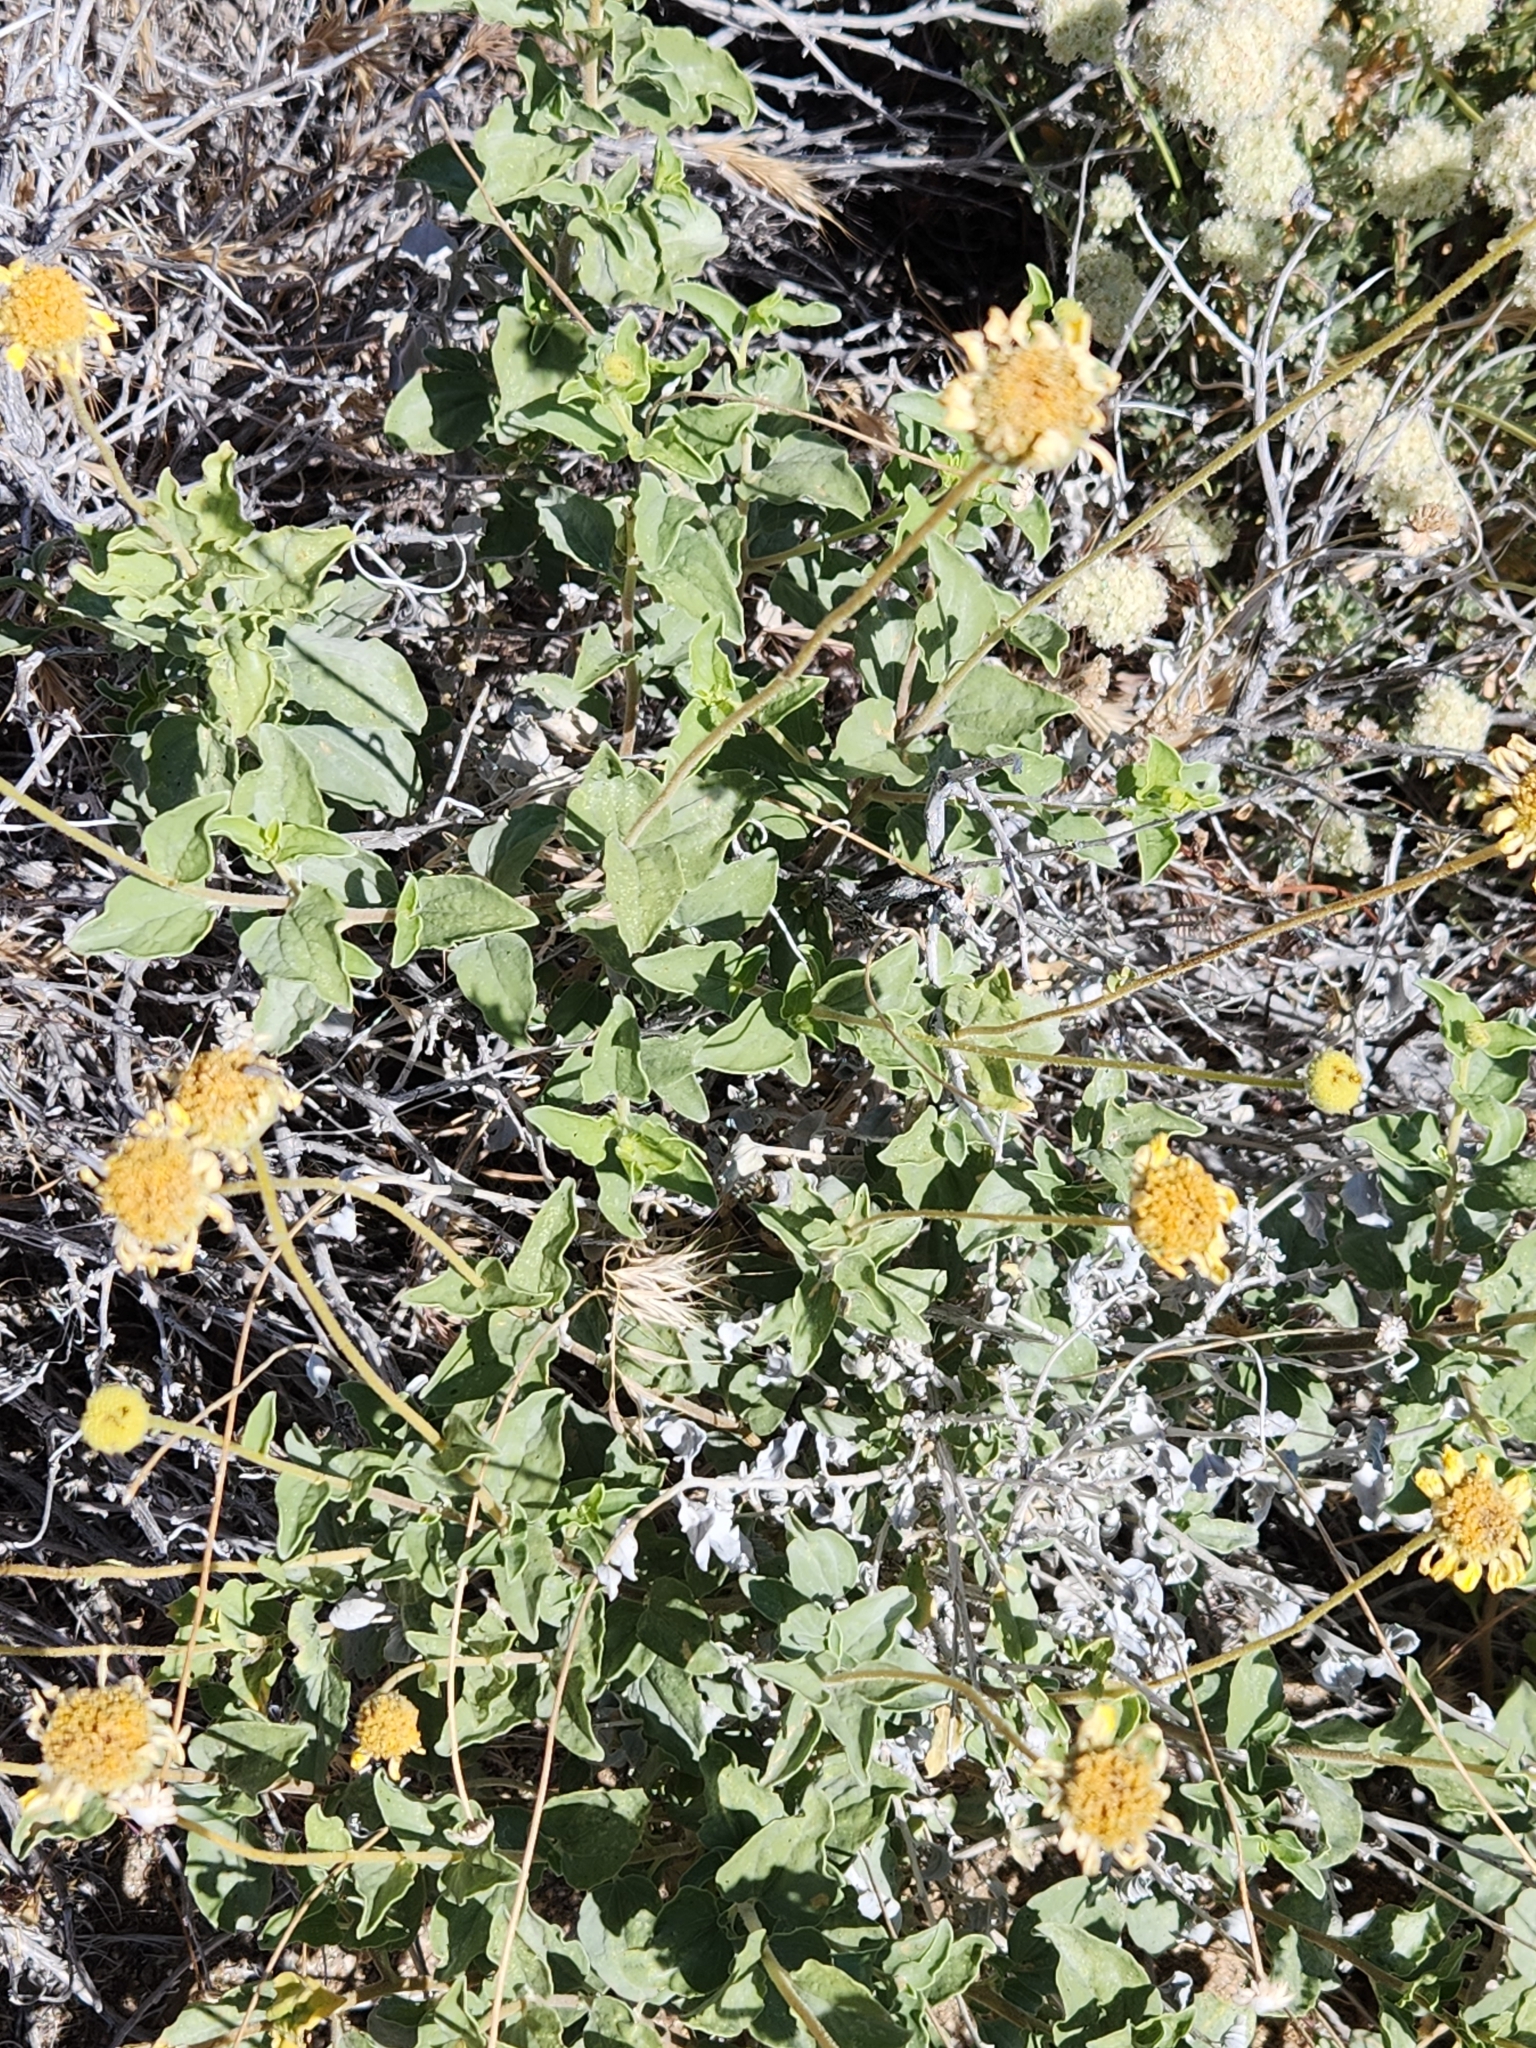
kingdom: Plantae
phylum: Tracheophyta
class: Magnoliopsida
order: Asterales
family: Asteraceae
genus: Encelia
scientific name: Encelia actoni
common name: Acton encelia
